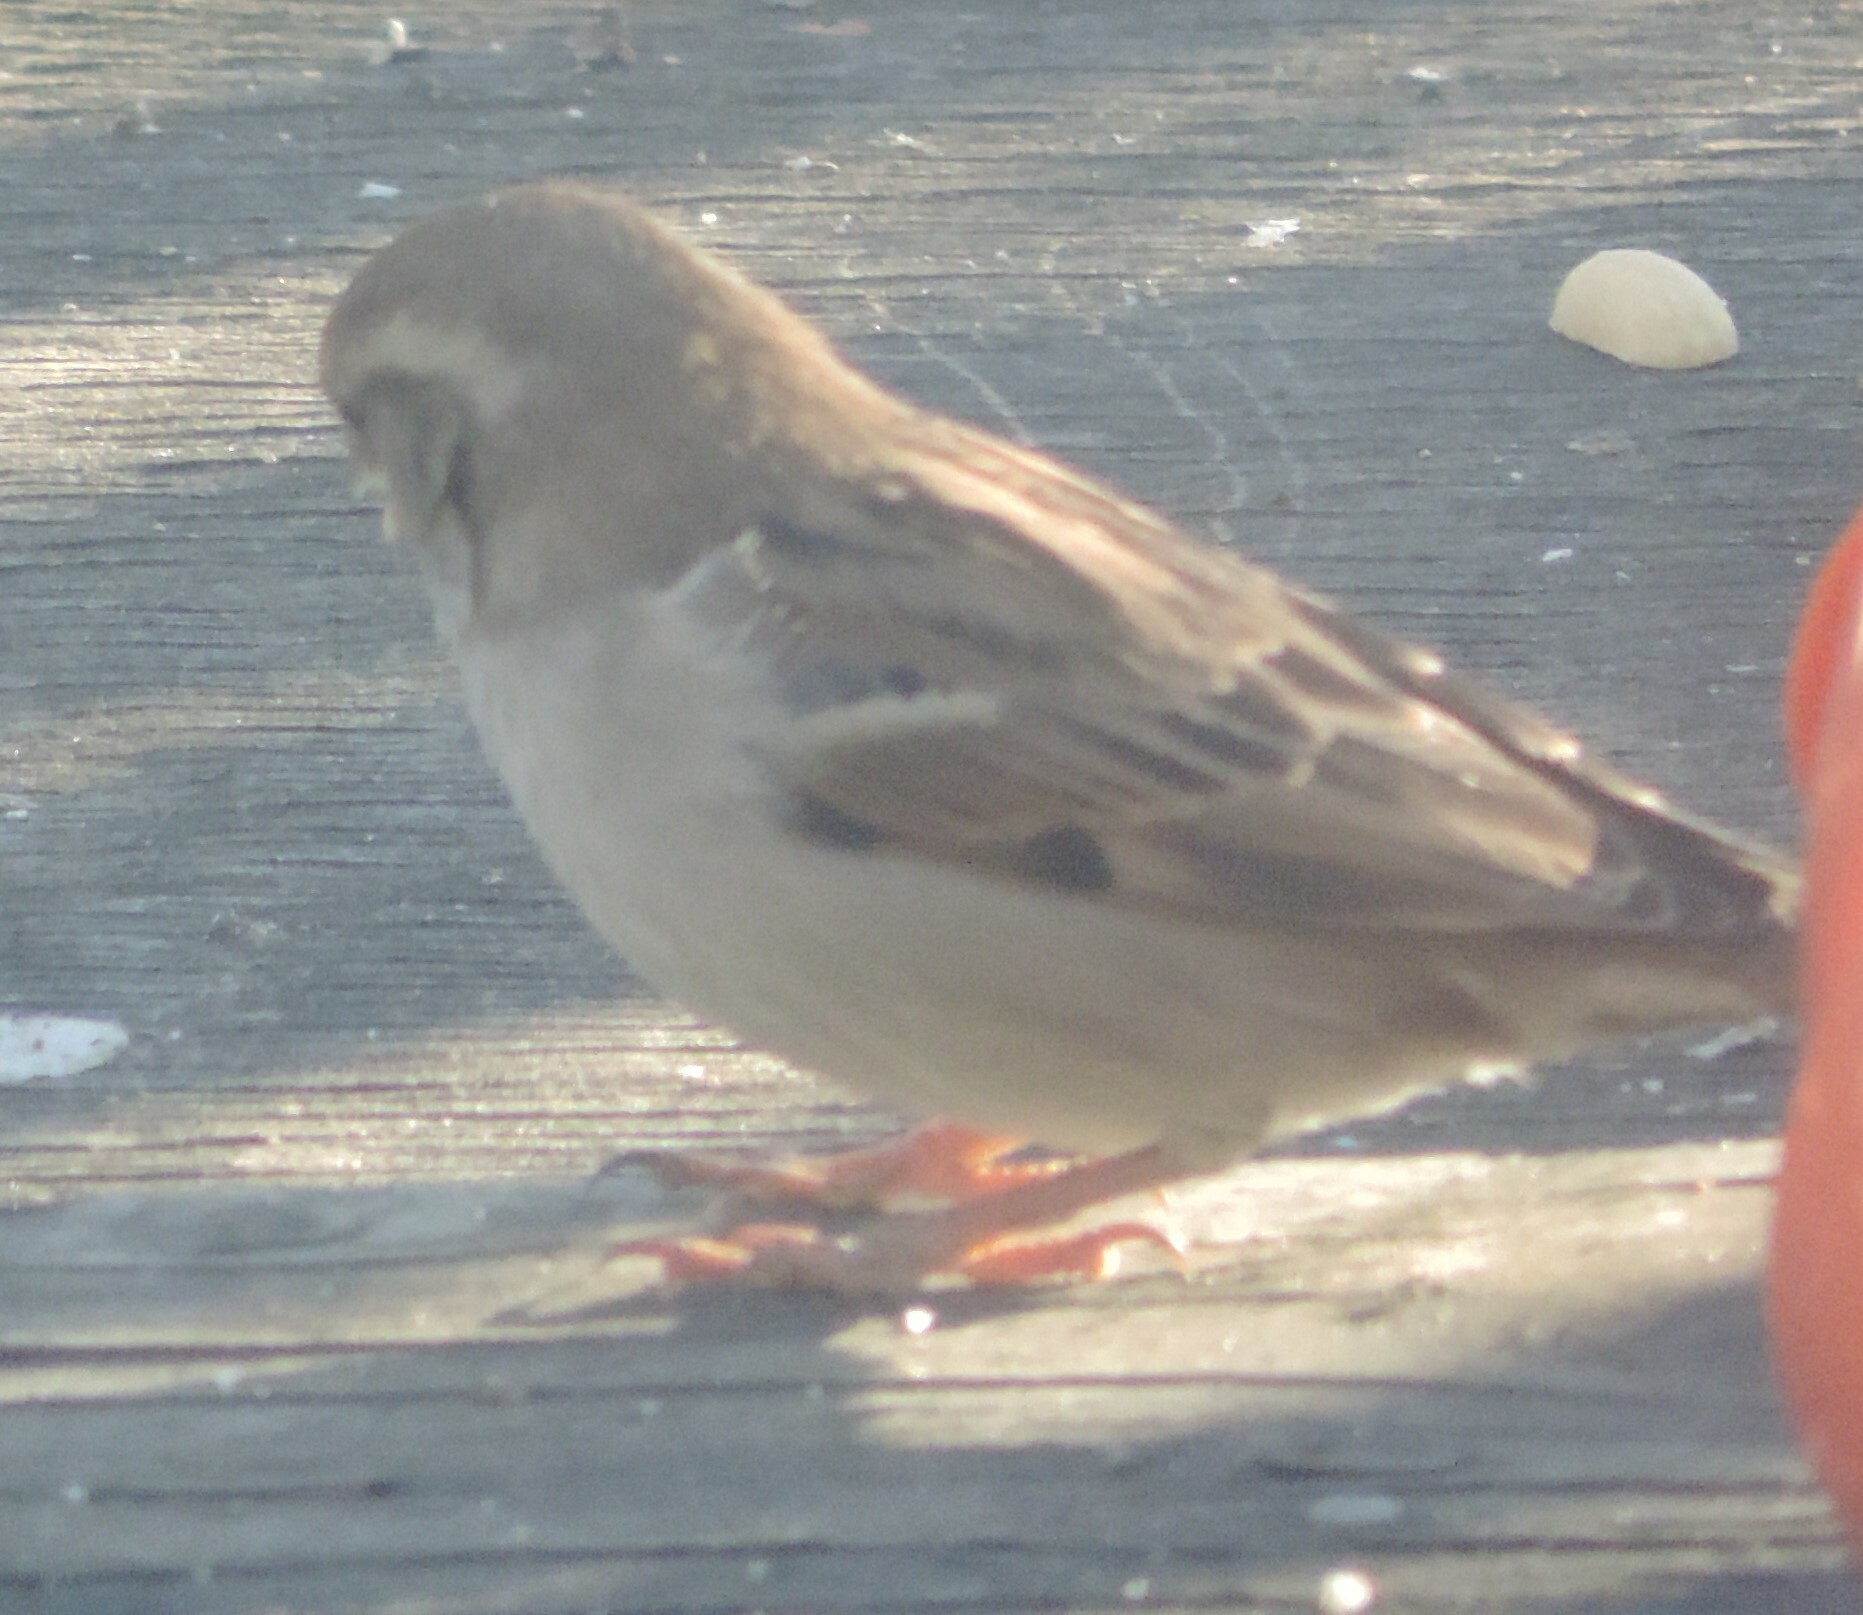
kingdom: Animalia
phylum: Chordata
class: Aves
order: Passeriformes
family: Passeridae
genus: Passer
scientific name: Passer domesticus
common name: House sparrow
